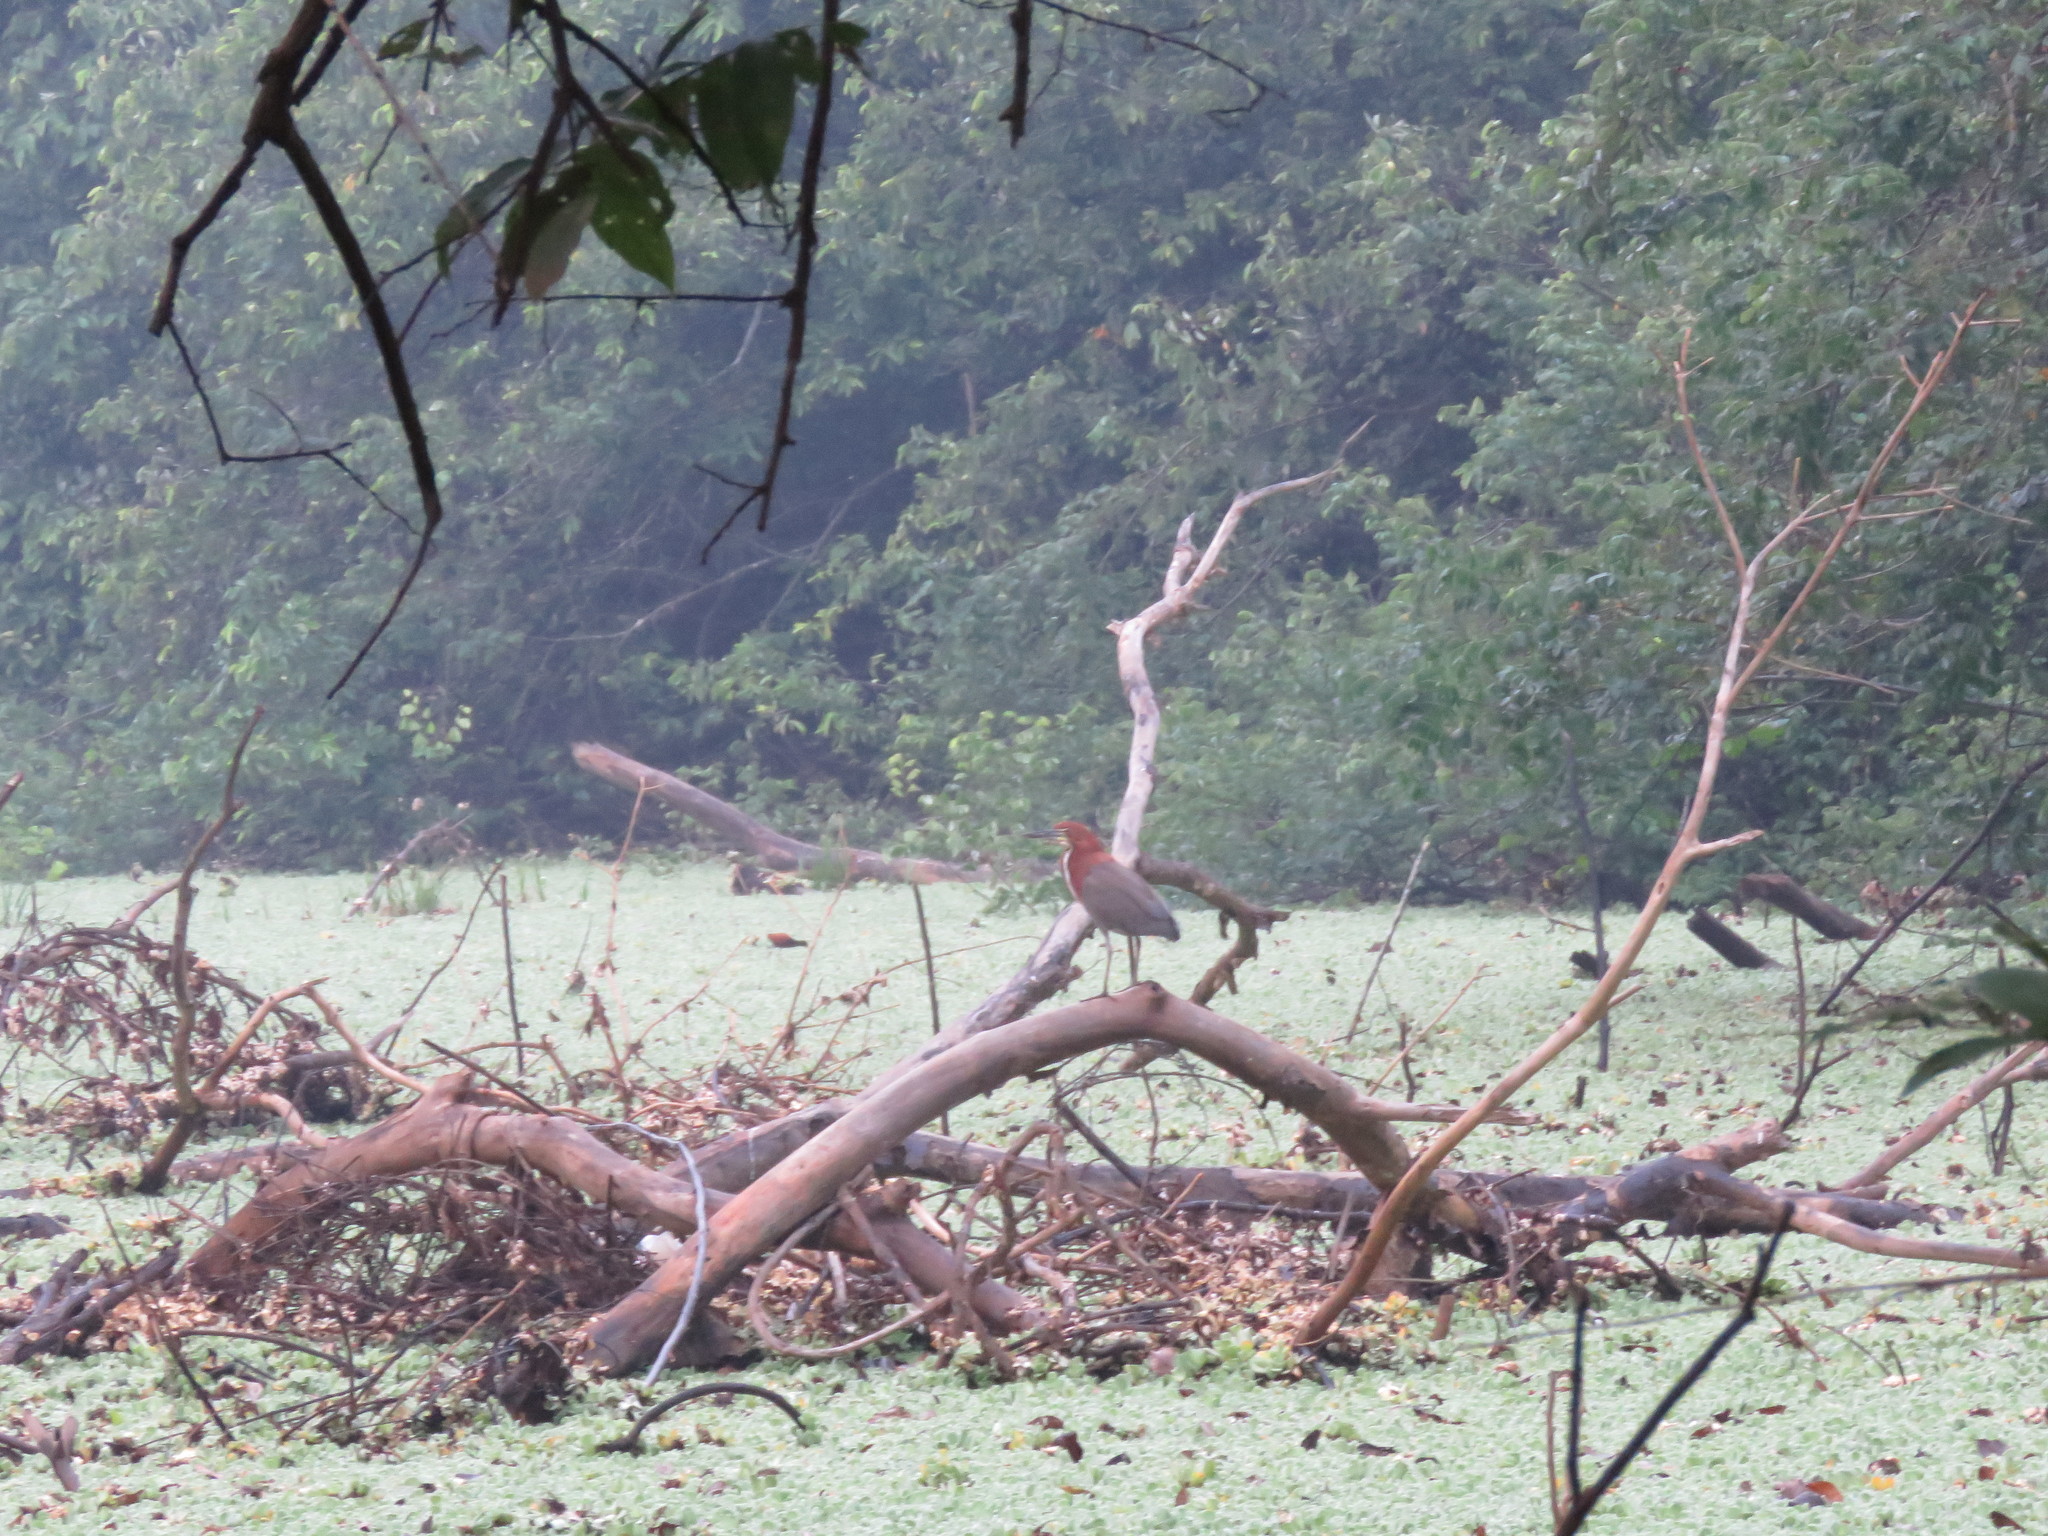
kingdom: Animalia
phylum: Chordata
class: Aves
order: Pelecaniformes
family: Ardeidae
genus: Tigrisoma
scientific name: Tigrisoma lineatum
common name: Rufescent tiger-heron
